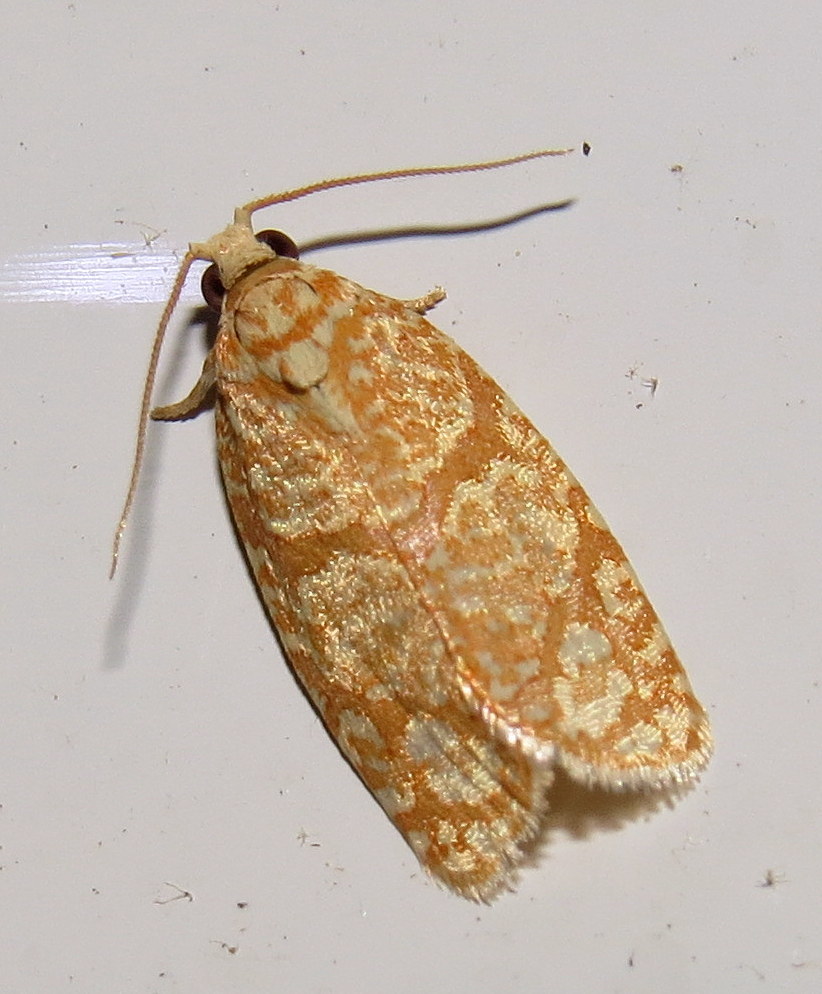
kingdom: Animalia
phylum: Arthropoda
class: Insecta
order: Lepidoptera
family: Tortricidae
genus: Argyrotaenia
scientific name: Argyrotaenia quercifoliana
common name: Yellow-winged oak leafroller moth
